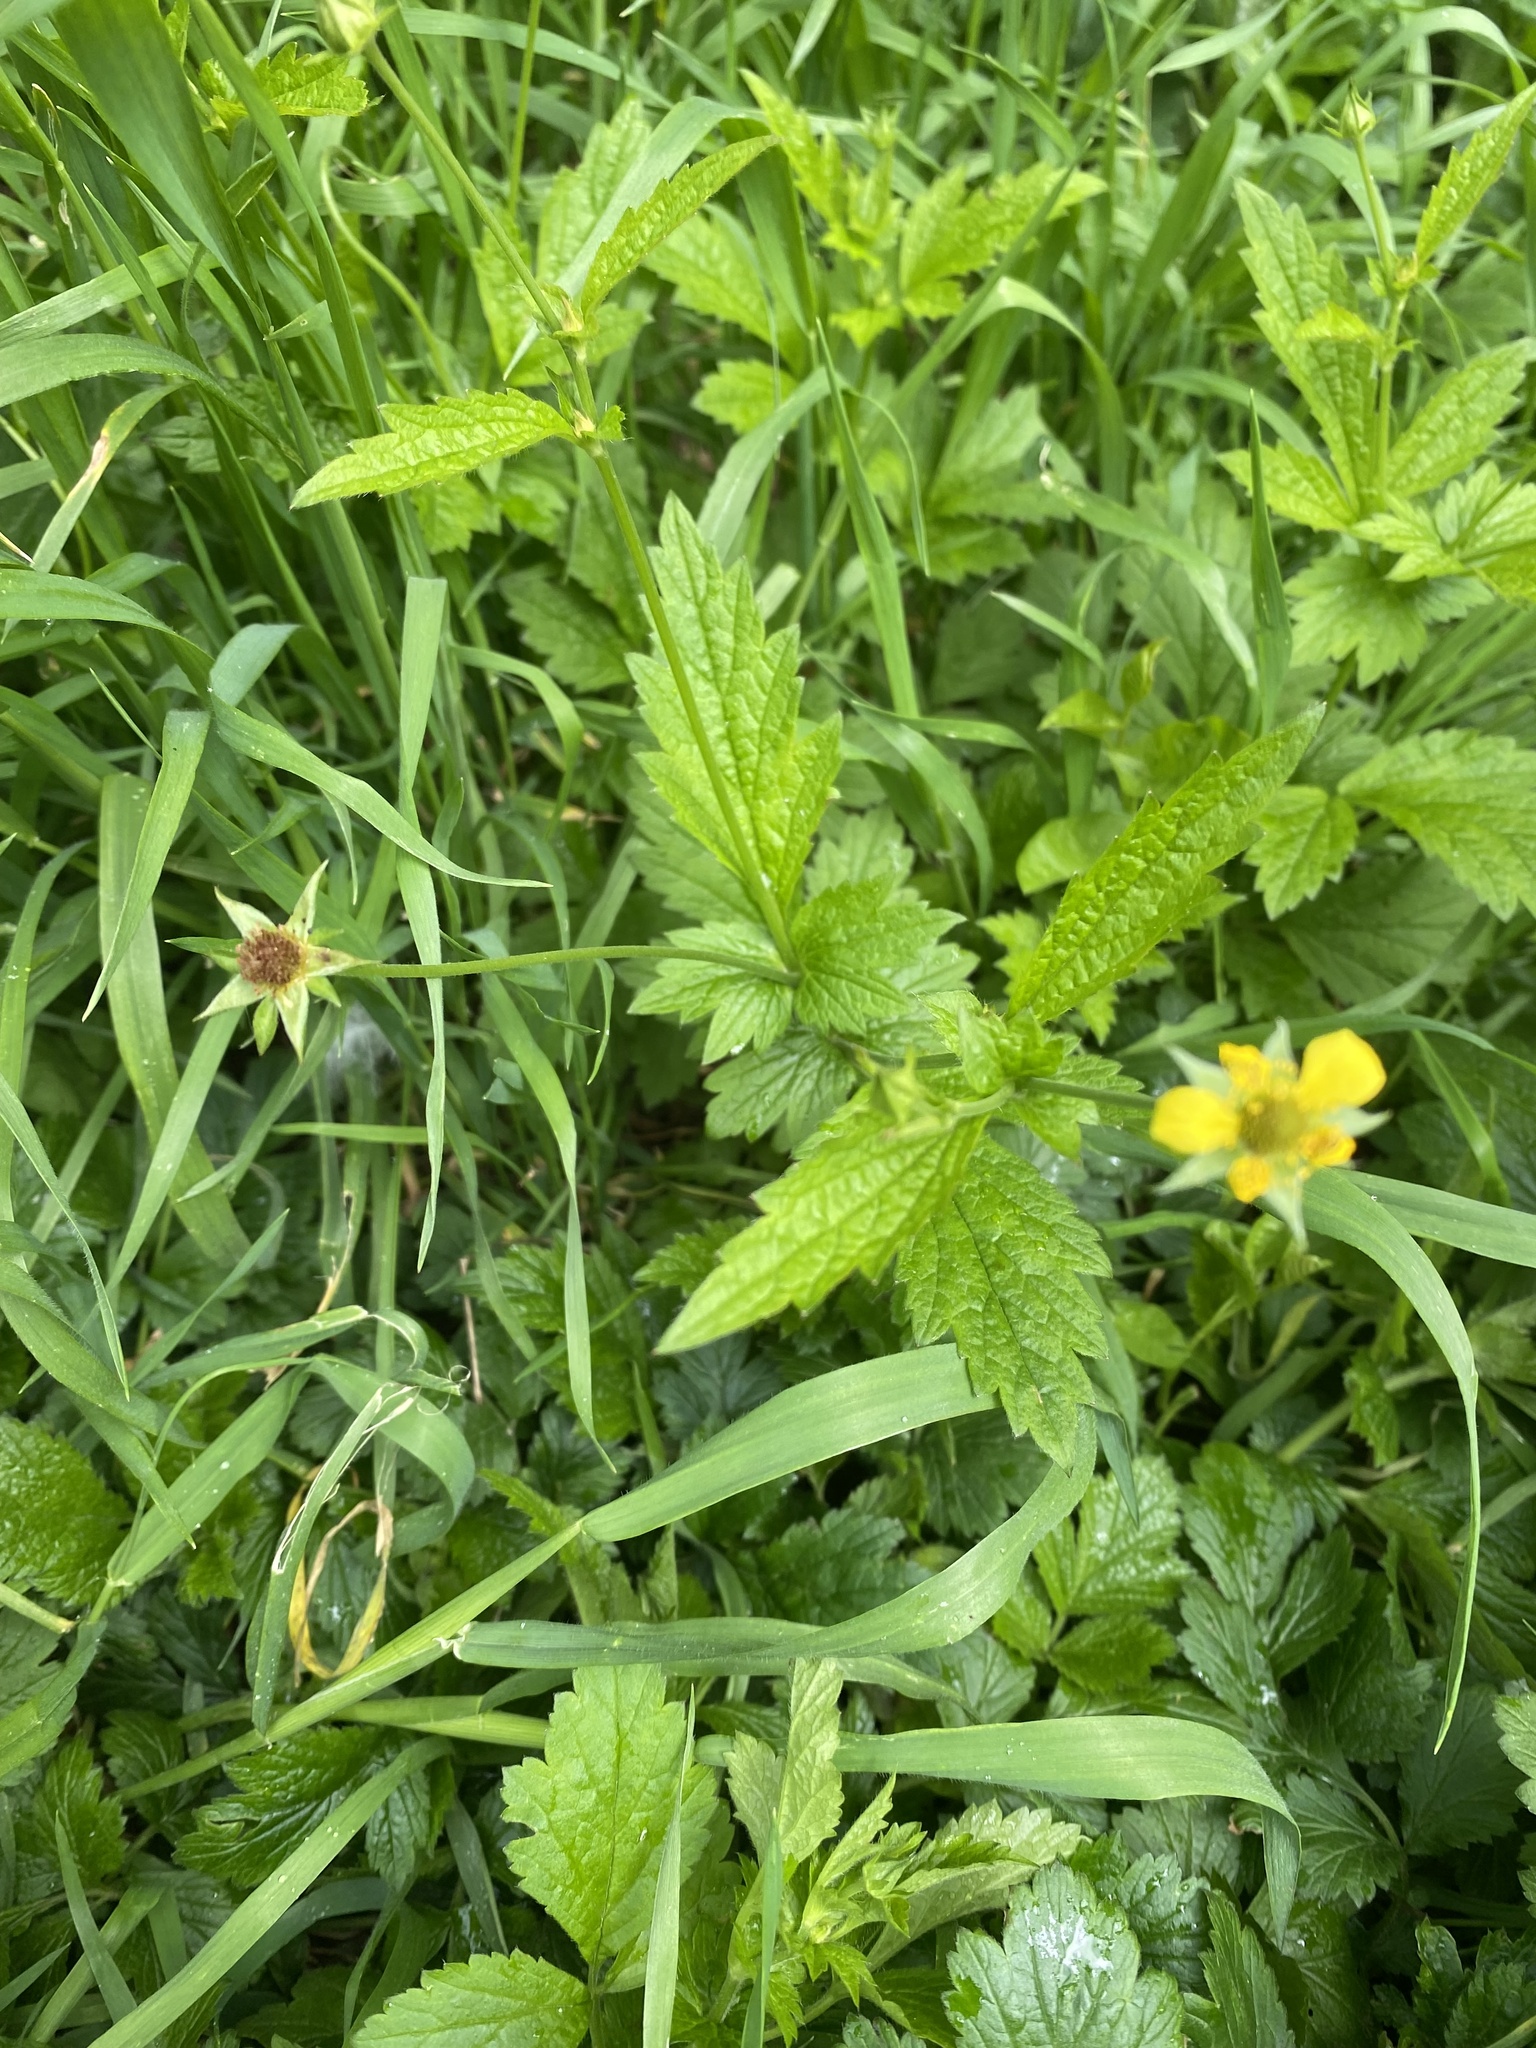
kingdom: Plantae
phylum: Tracheophyta
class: Magnoliopsida
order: Rosales
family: Rosaceae
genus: Geum
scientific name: Geum urbanum
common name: Wood avens
